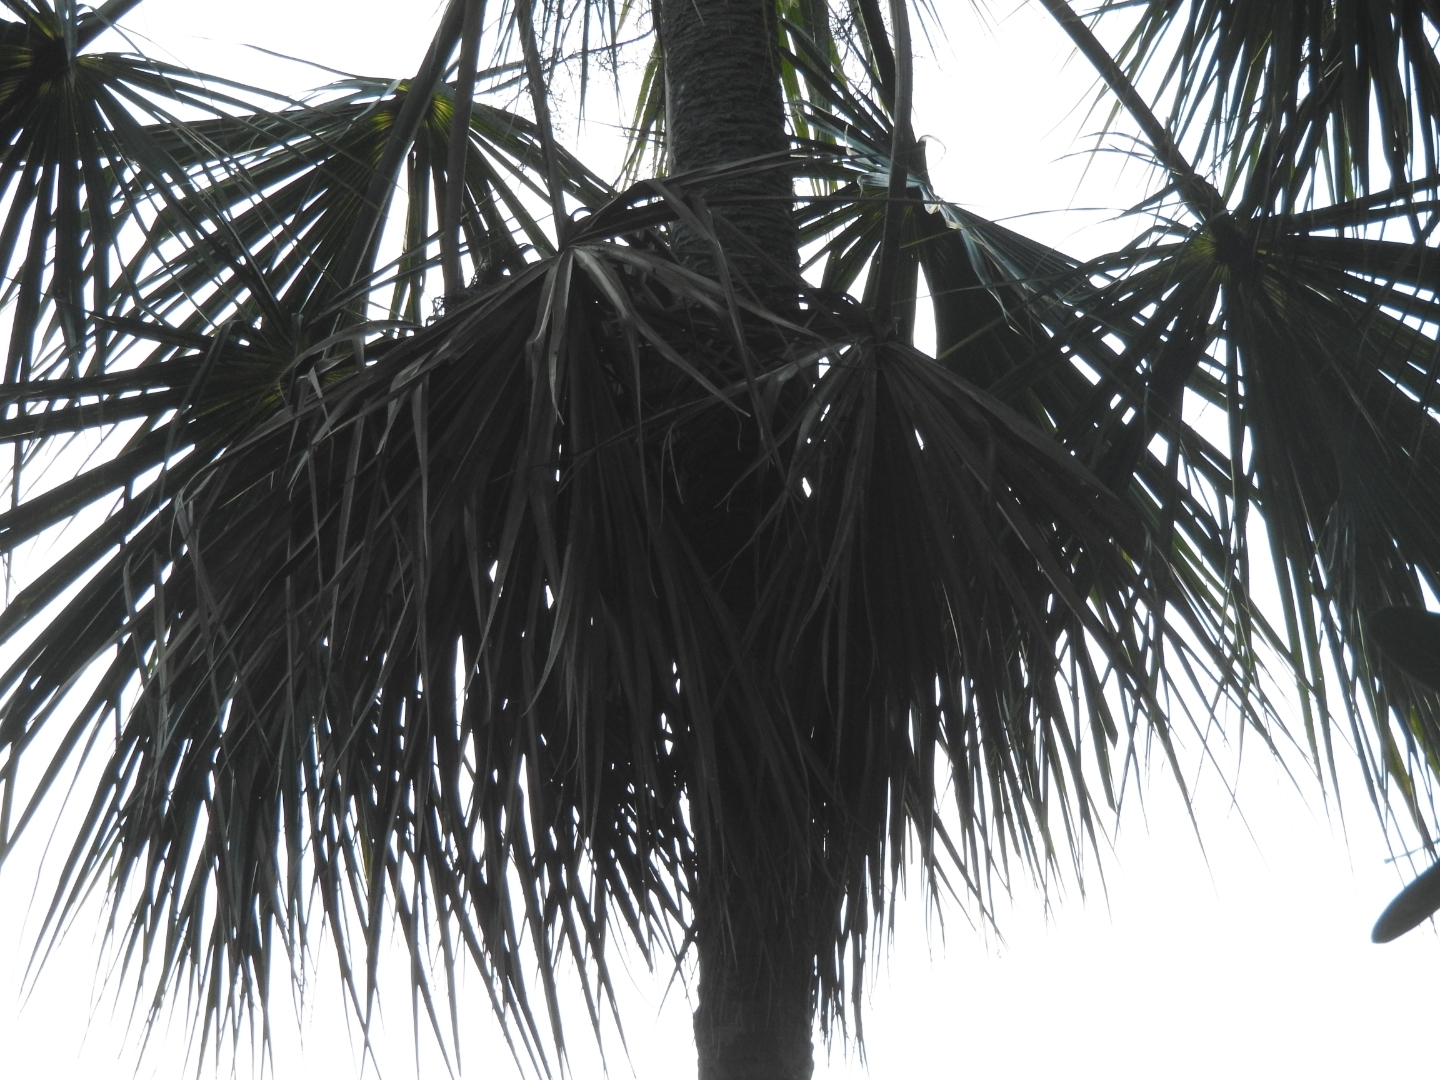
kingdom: Plantae
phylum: Tracheophyta
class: Liliopsida
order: Arecales
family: Arecaceae
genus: Sabal
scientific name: Sabal yapa
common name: Thatch palm
